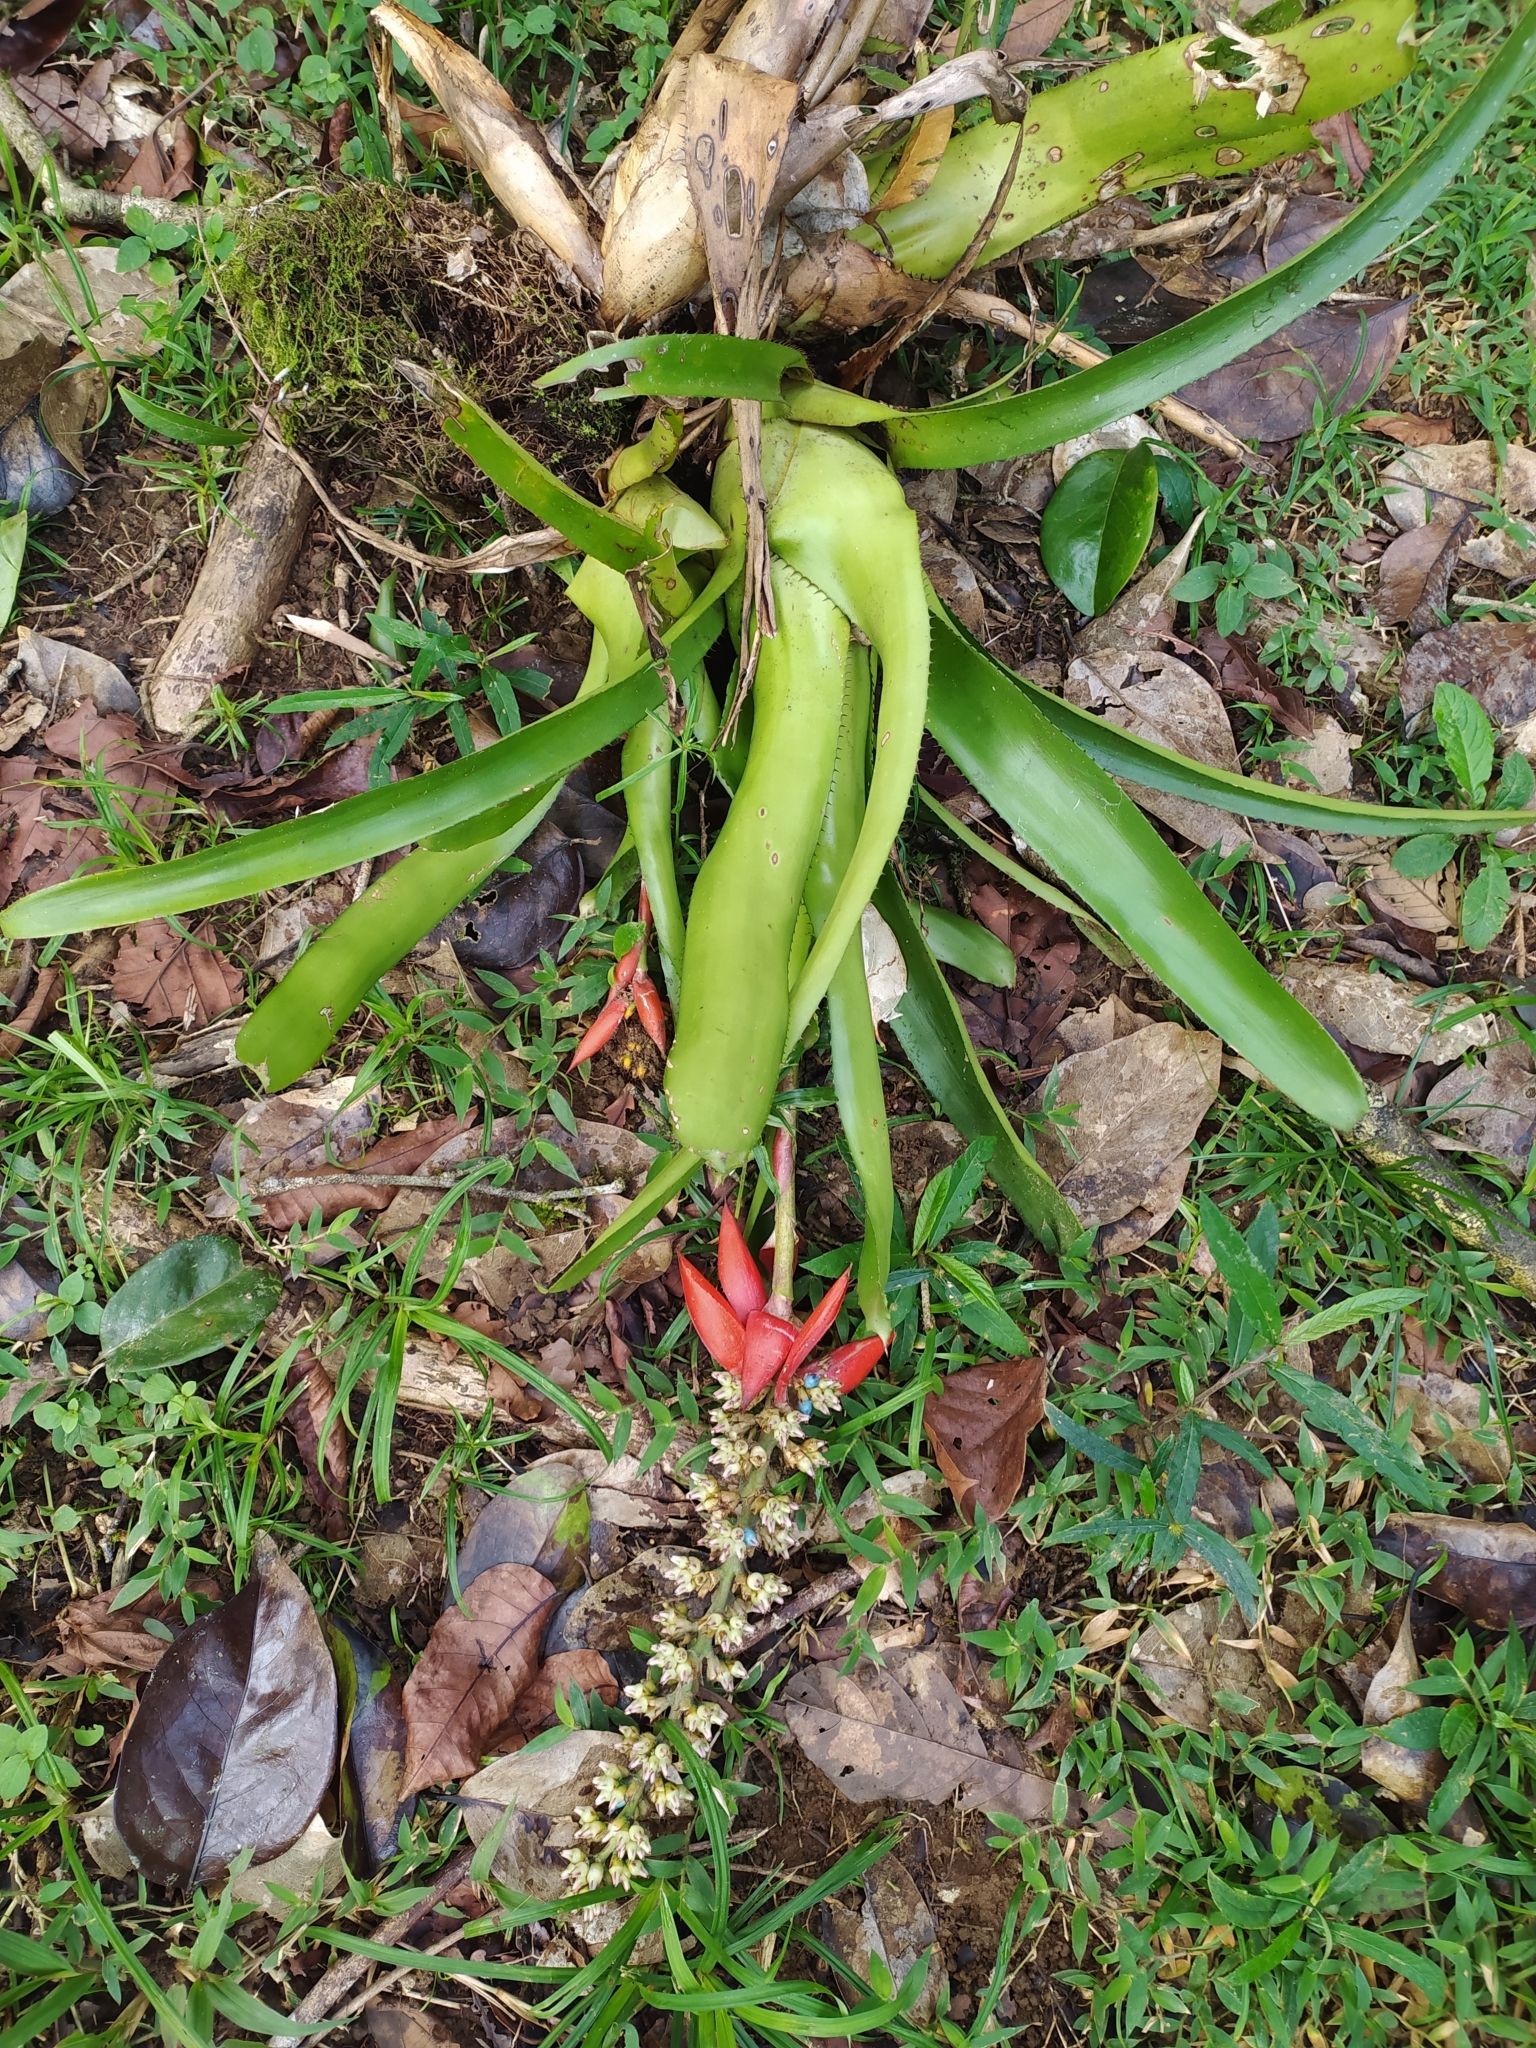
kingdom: Plantae
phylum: Tracheophyta
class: Liliopsida
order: Poales
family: Bromeliaceae
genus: Aechmea
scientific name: Aechmea mertensii
